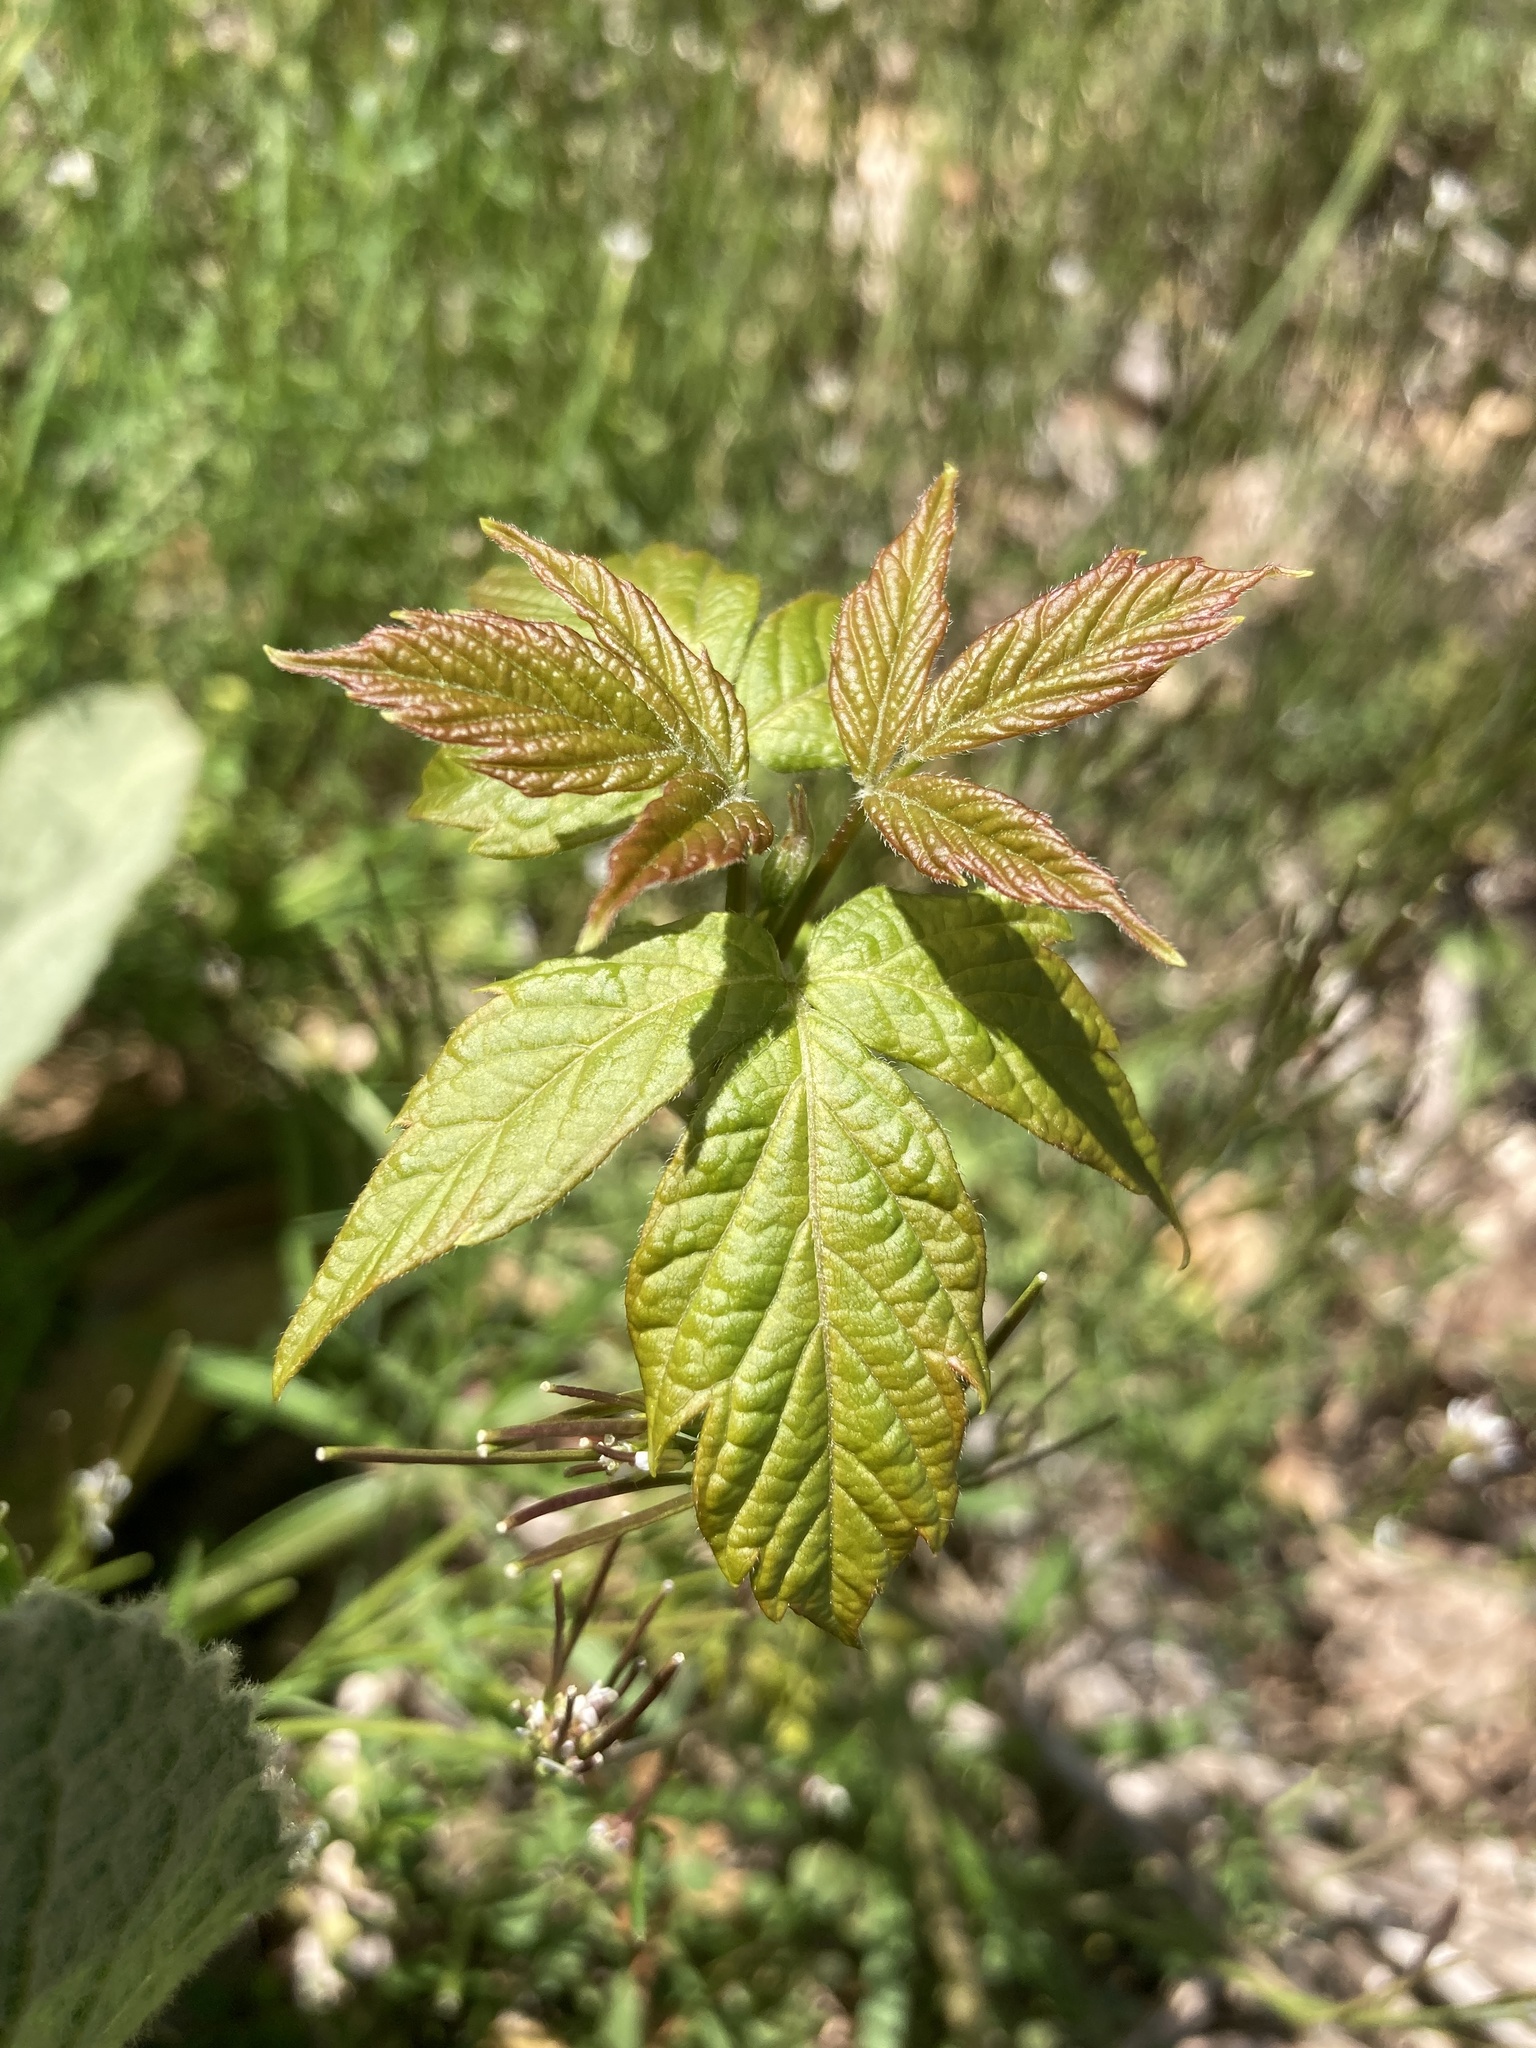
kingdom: Plantae
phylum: Tracheophyta
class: Magnoliopsida
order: Sapindales
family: Sapindaceae
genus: Acer
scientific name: Acer negundo
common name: Ashleaf maple
